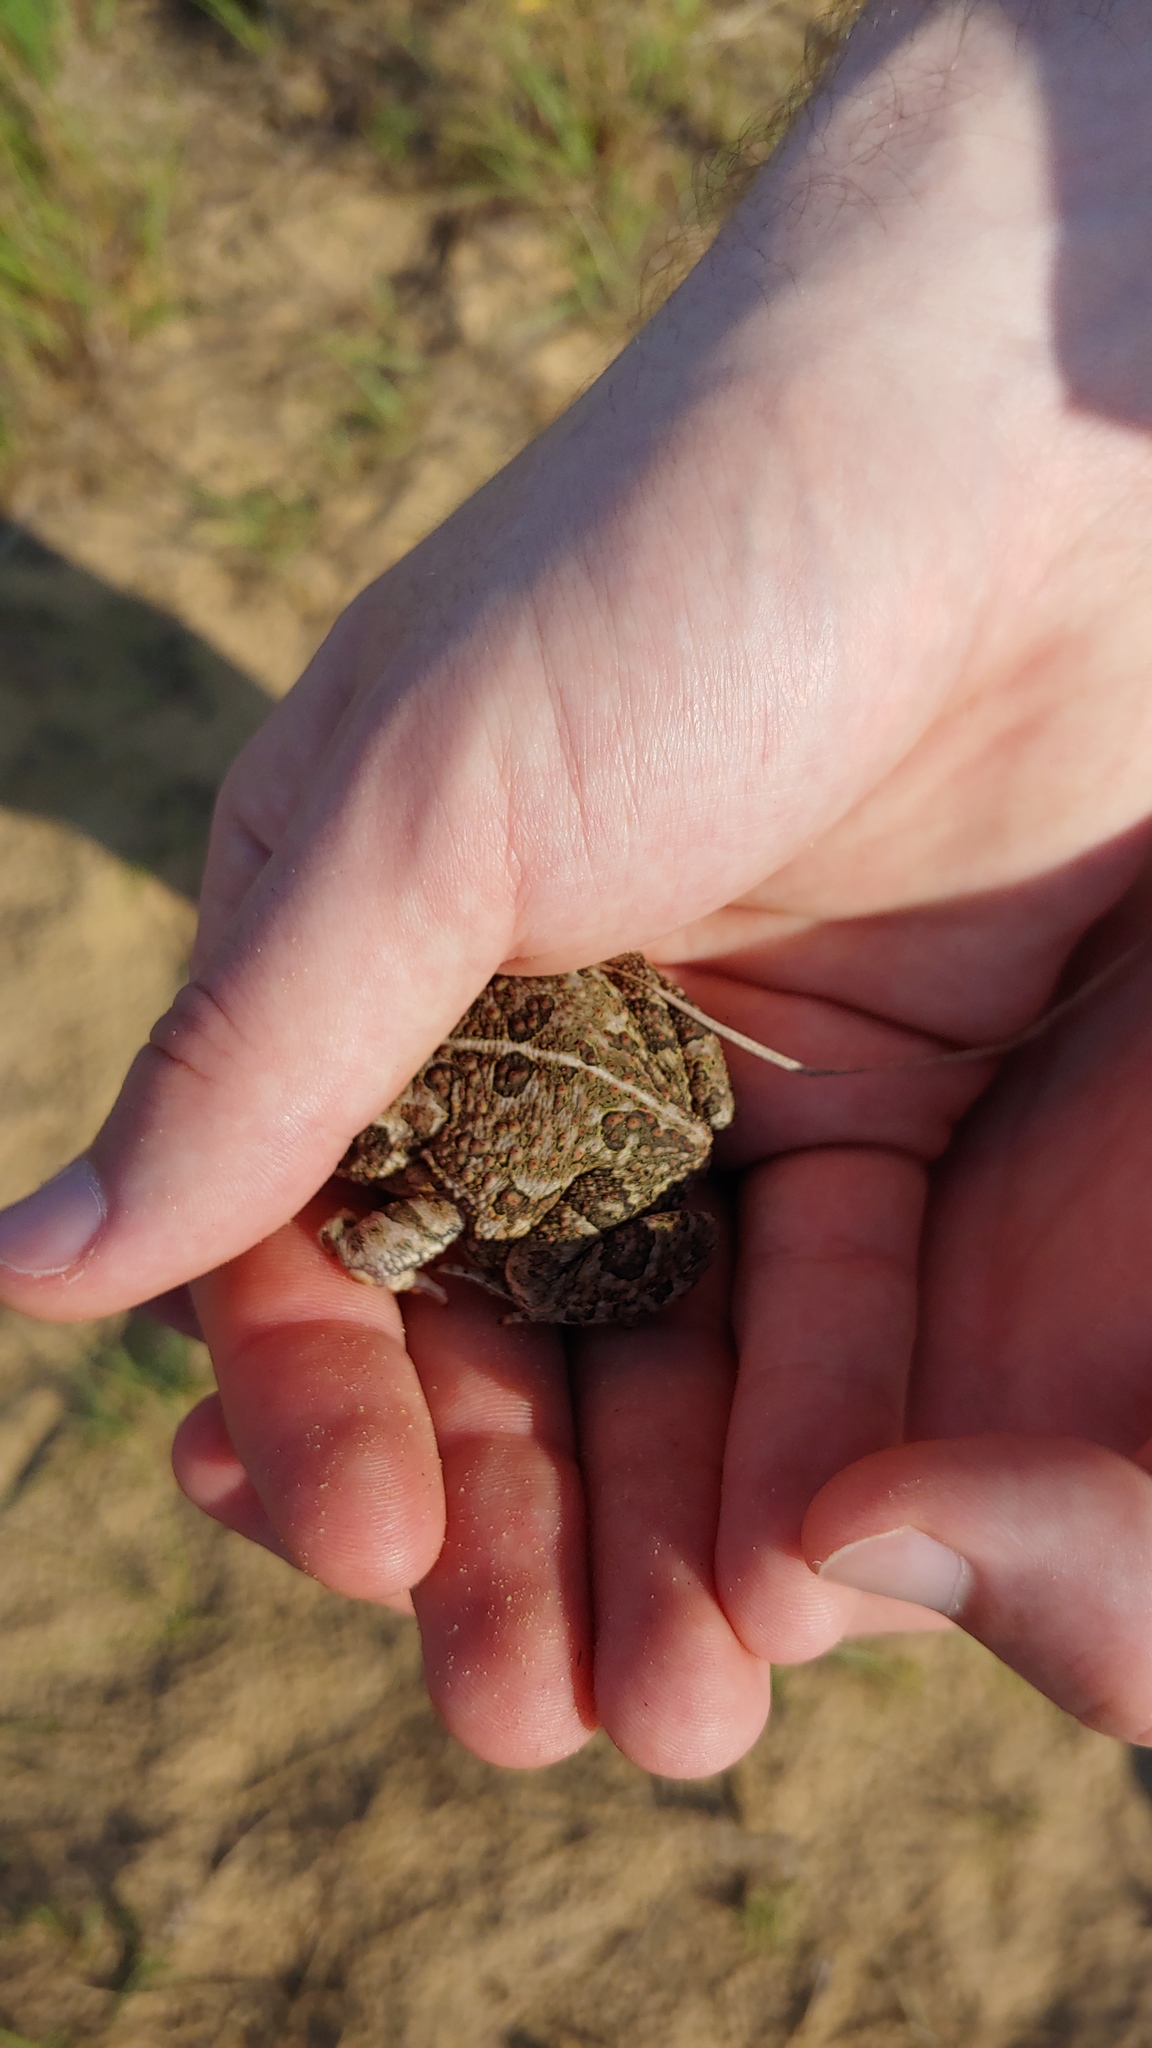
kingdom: Animalia
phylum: Chordata
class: Amphibia
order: Anura
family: Bufonidae
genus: Anaxyrus
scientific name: Anaxyrus fowleri
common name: Fowler's toad
